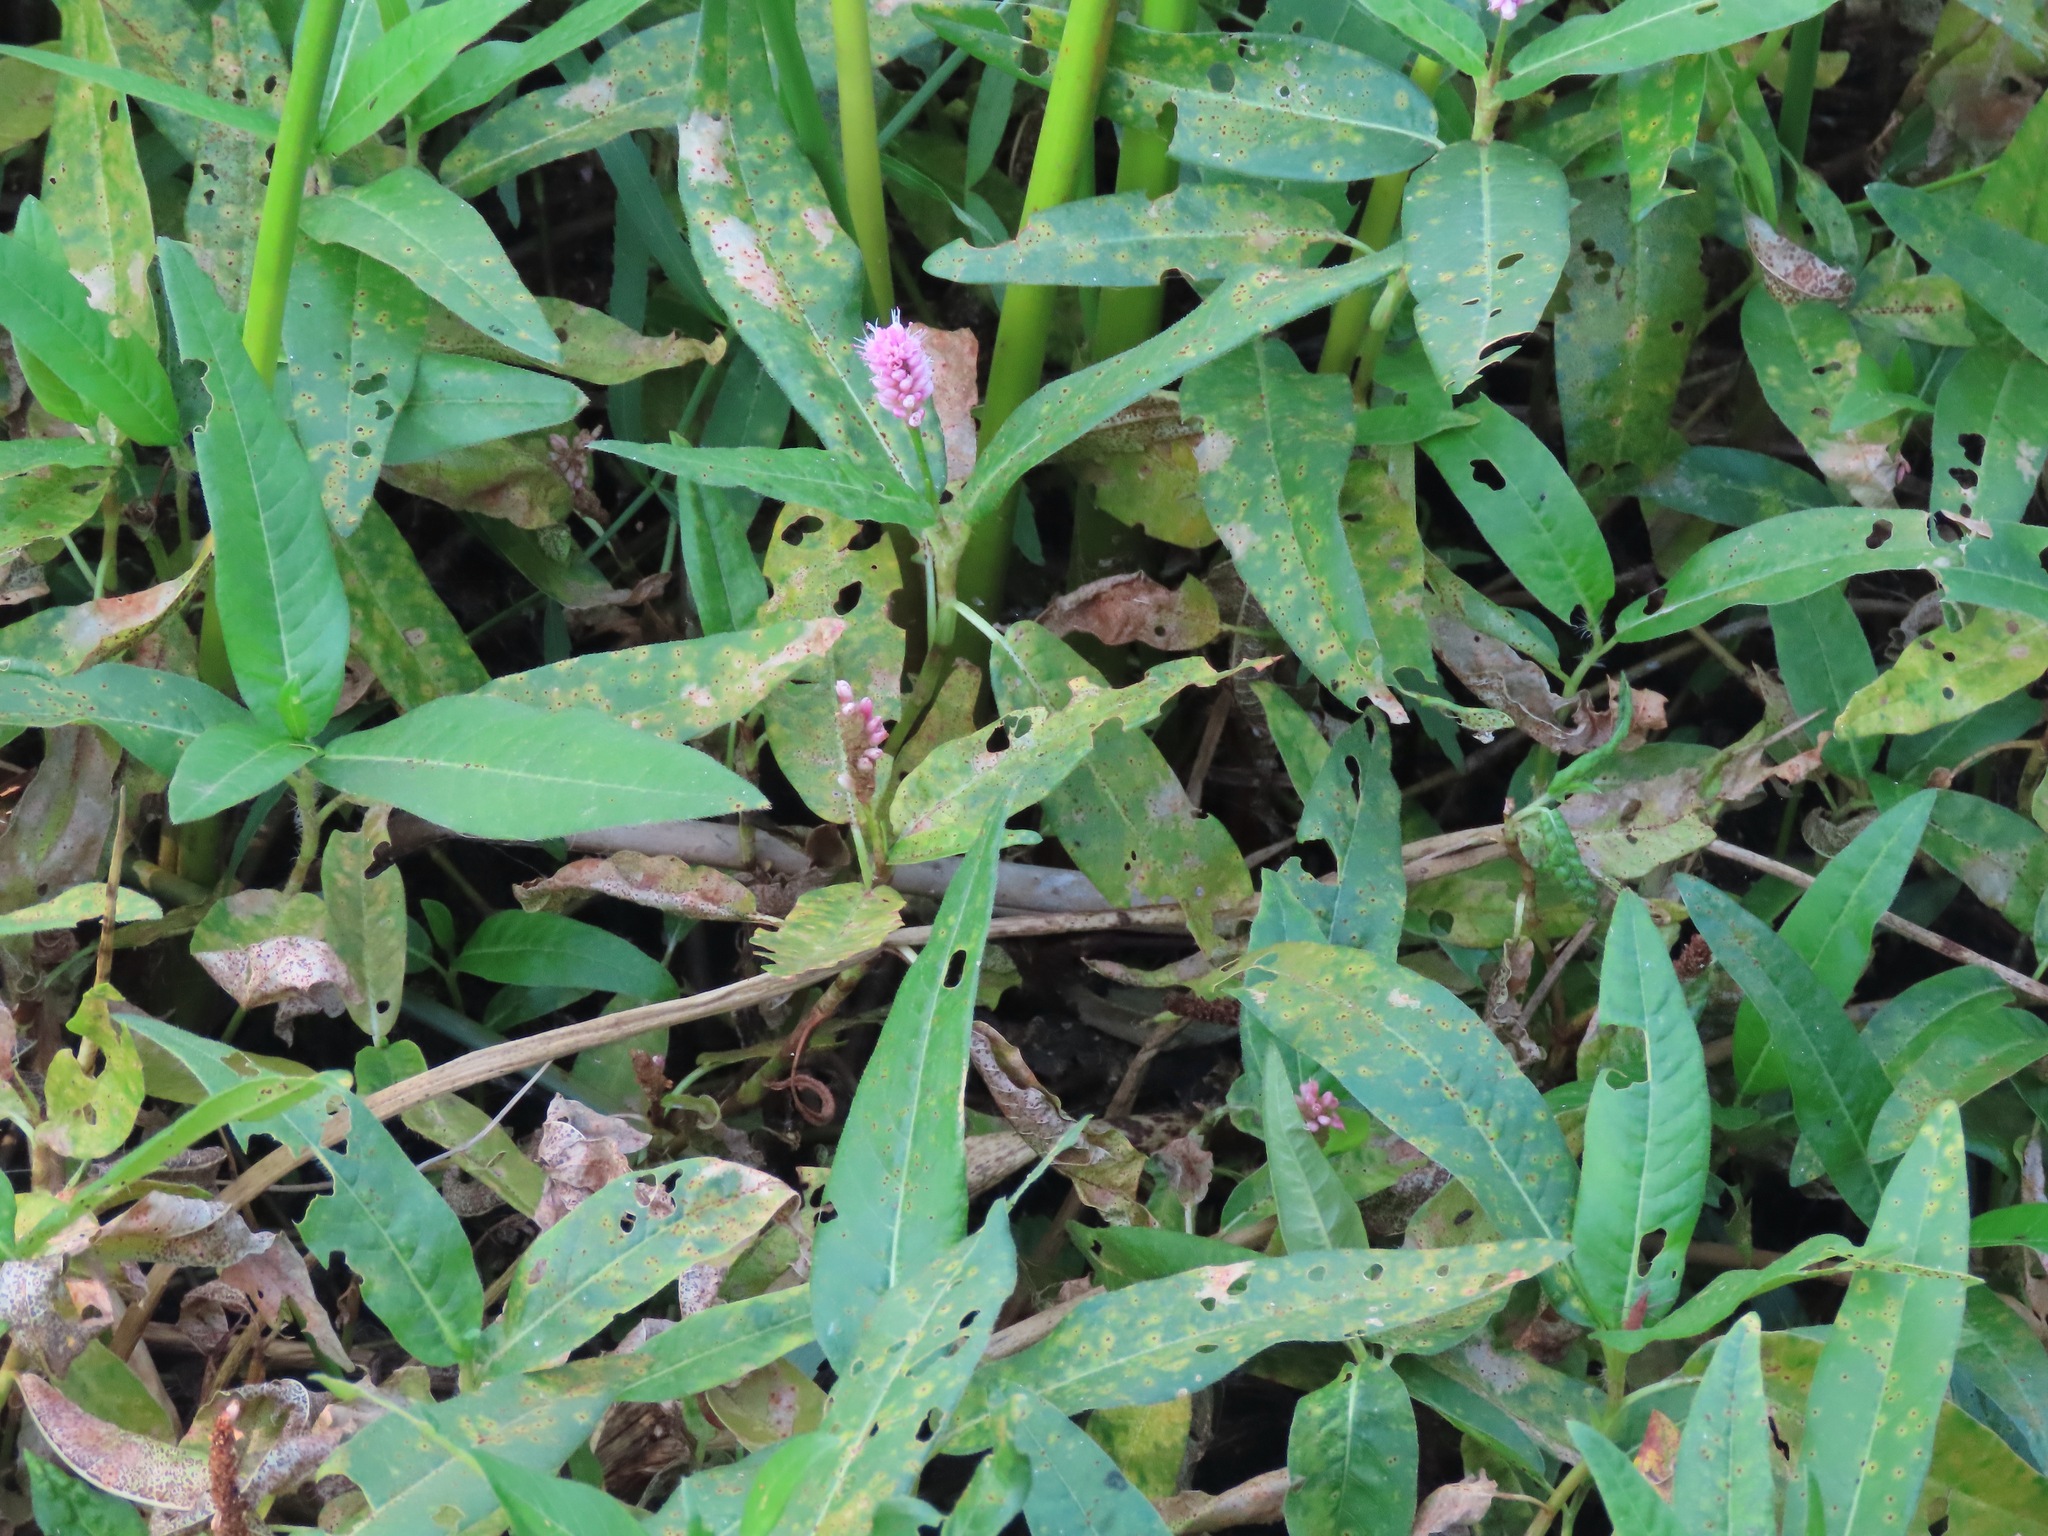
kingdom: Plantae
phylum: Tracheophyta
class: Magnoliopsida
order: Caryophyllales
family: Polygonaceae
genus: Persicaria
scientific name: Persicaria amphibia
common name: Amphibious bistort
